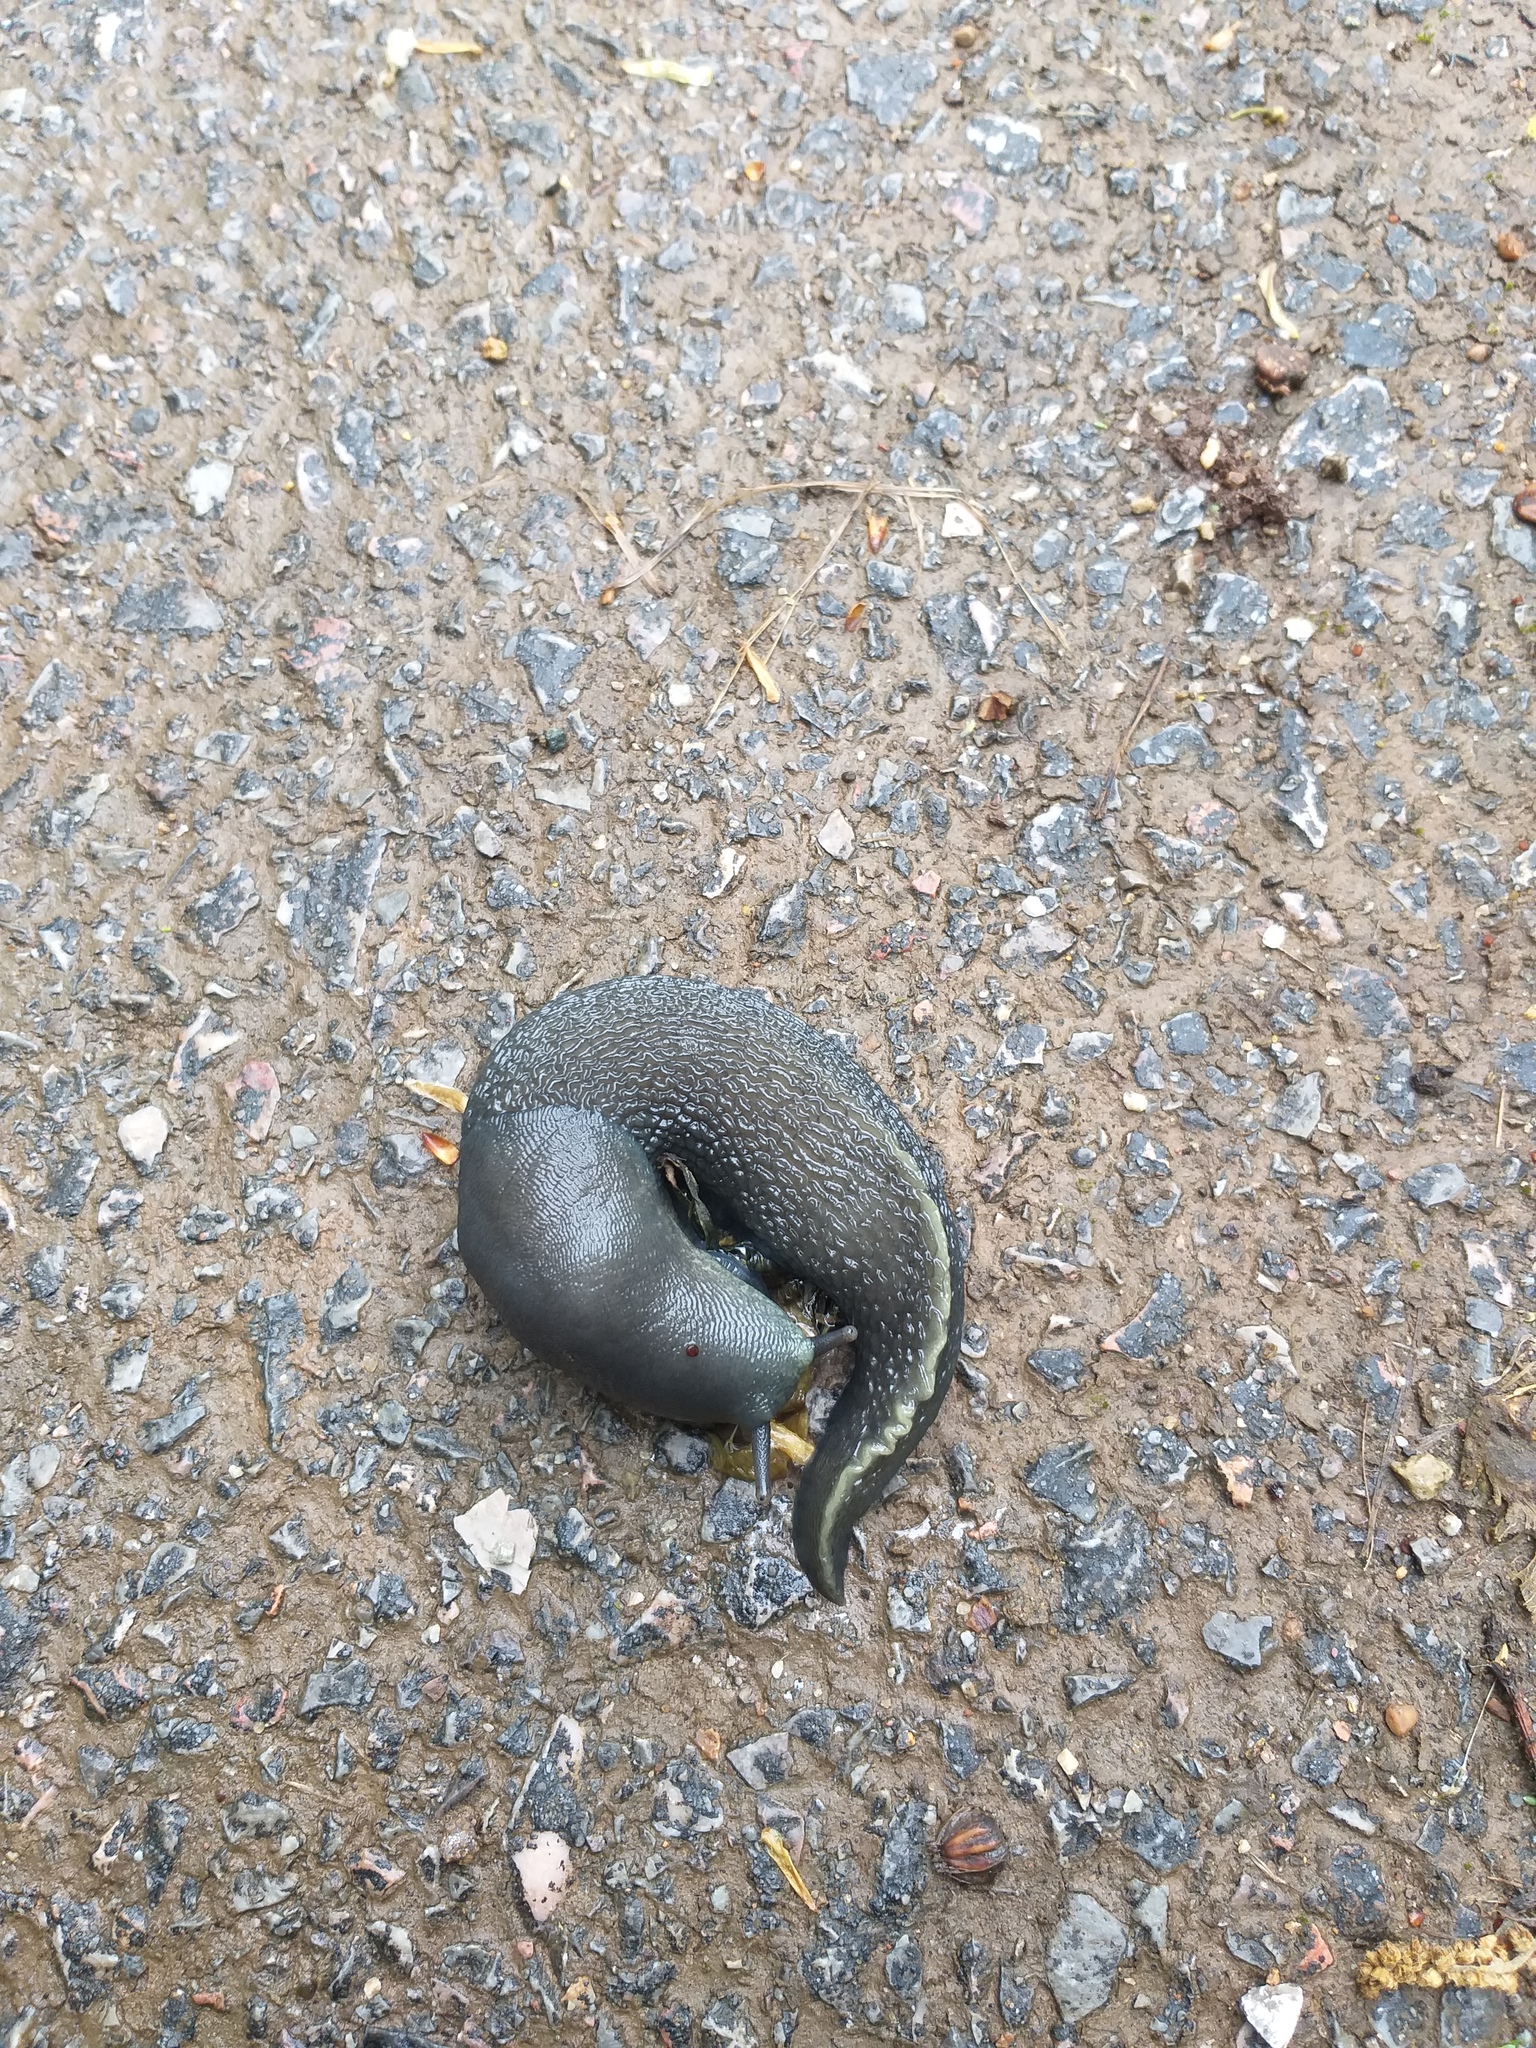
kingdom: Animalia
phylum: Mollusca
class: Gastropoda
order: Stylommatophora
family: Limacidae
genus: Limax
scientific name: Limax cinereoniger
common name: Ash-black slug
